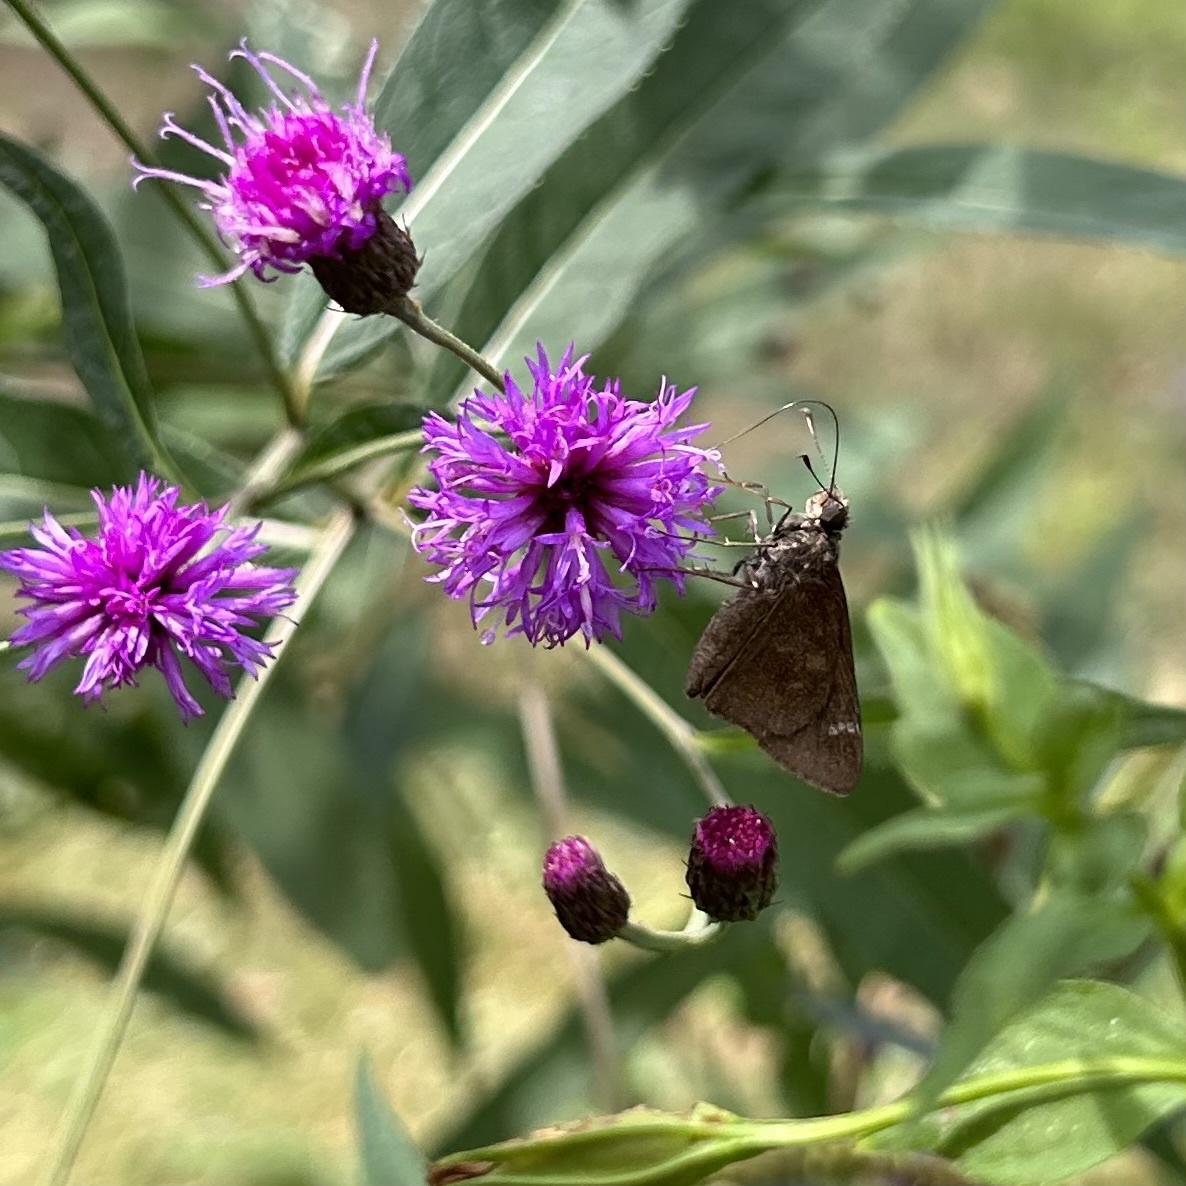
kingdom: Animalia
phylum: Arthropoda
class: Insecta
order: Lepidoptera
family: Hesperiidae
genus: Lerema
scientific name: Lerema accius
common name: Clouded skipper
